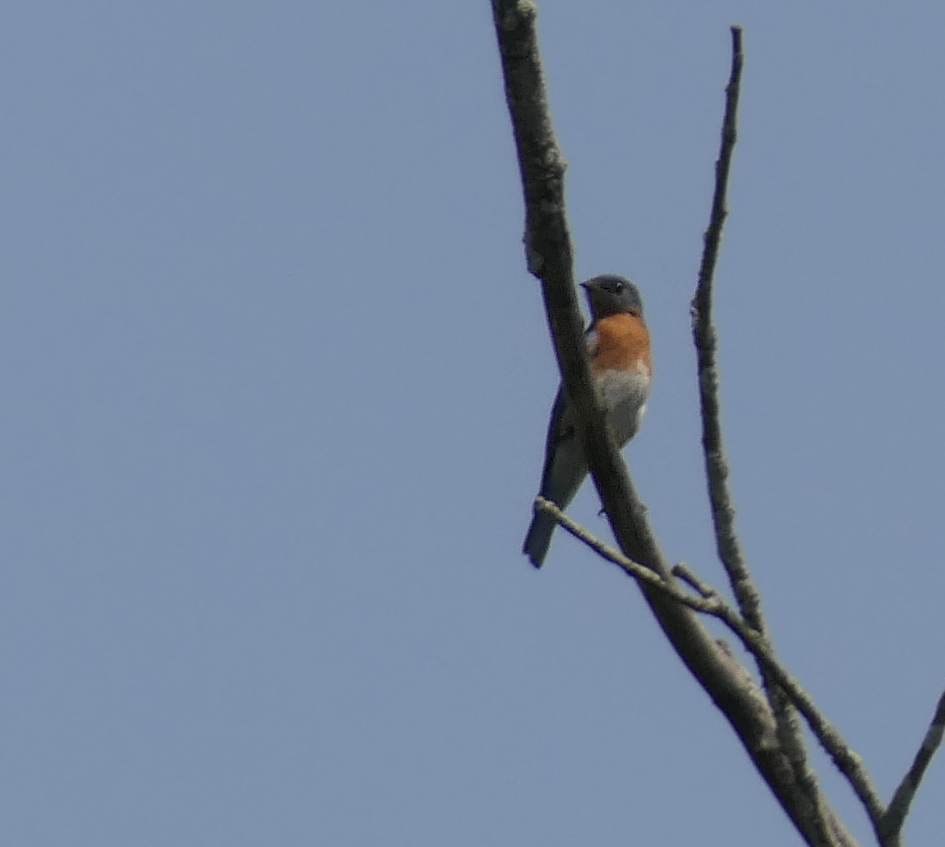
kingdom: Animalia
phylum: Chordata
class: Aves
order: Passeriformes
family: Turdidae
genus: Sialia
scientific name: Sialia sialis
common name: Eastern bluebird
